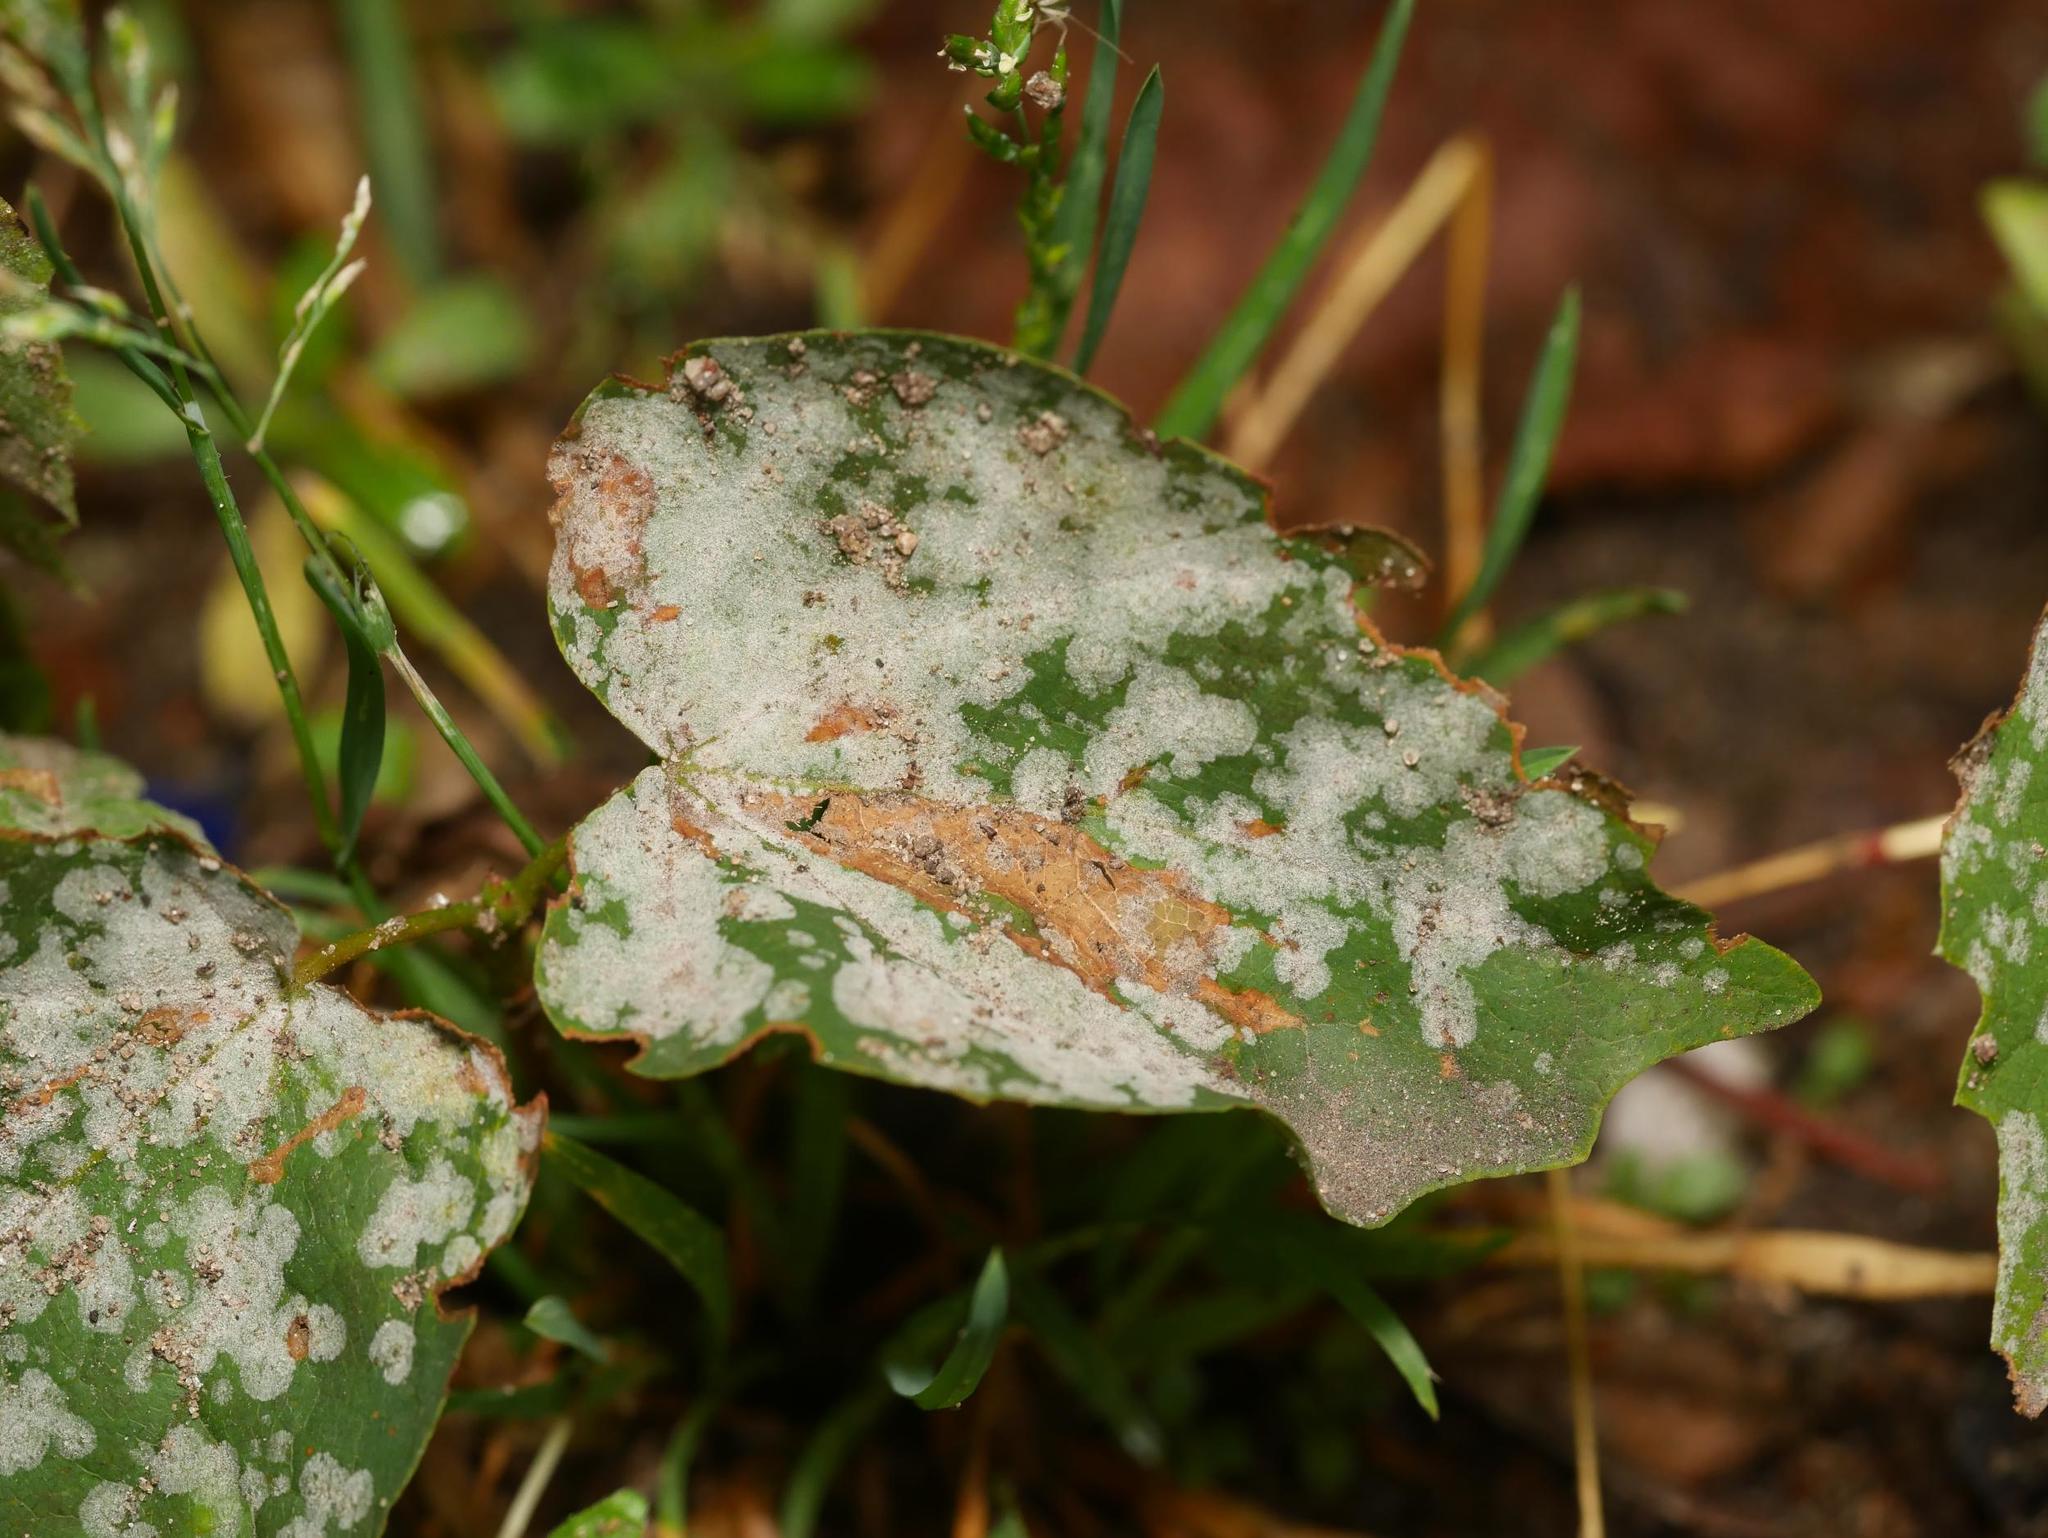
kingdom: Fungi
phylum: Ascomycota
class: Leotiomycetes
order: Helotiales
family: Erysiphaceae
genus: Sawadaea
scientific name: Sawadaea tulasnei
